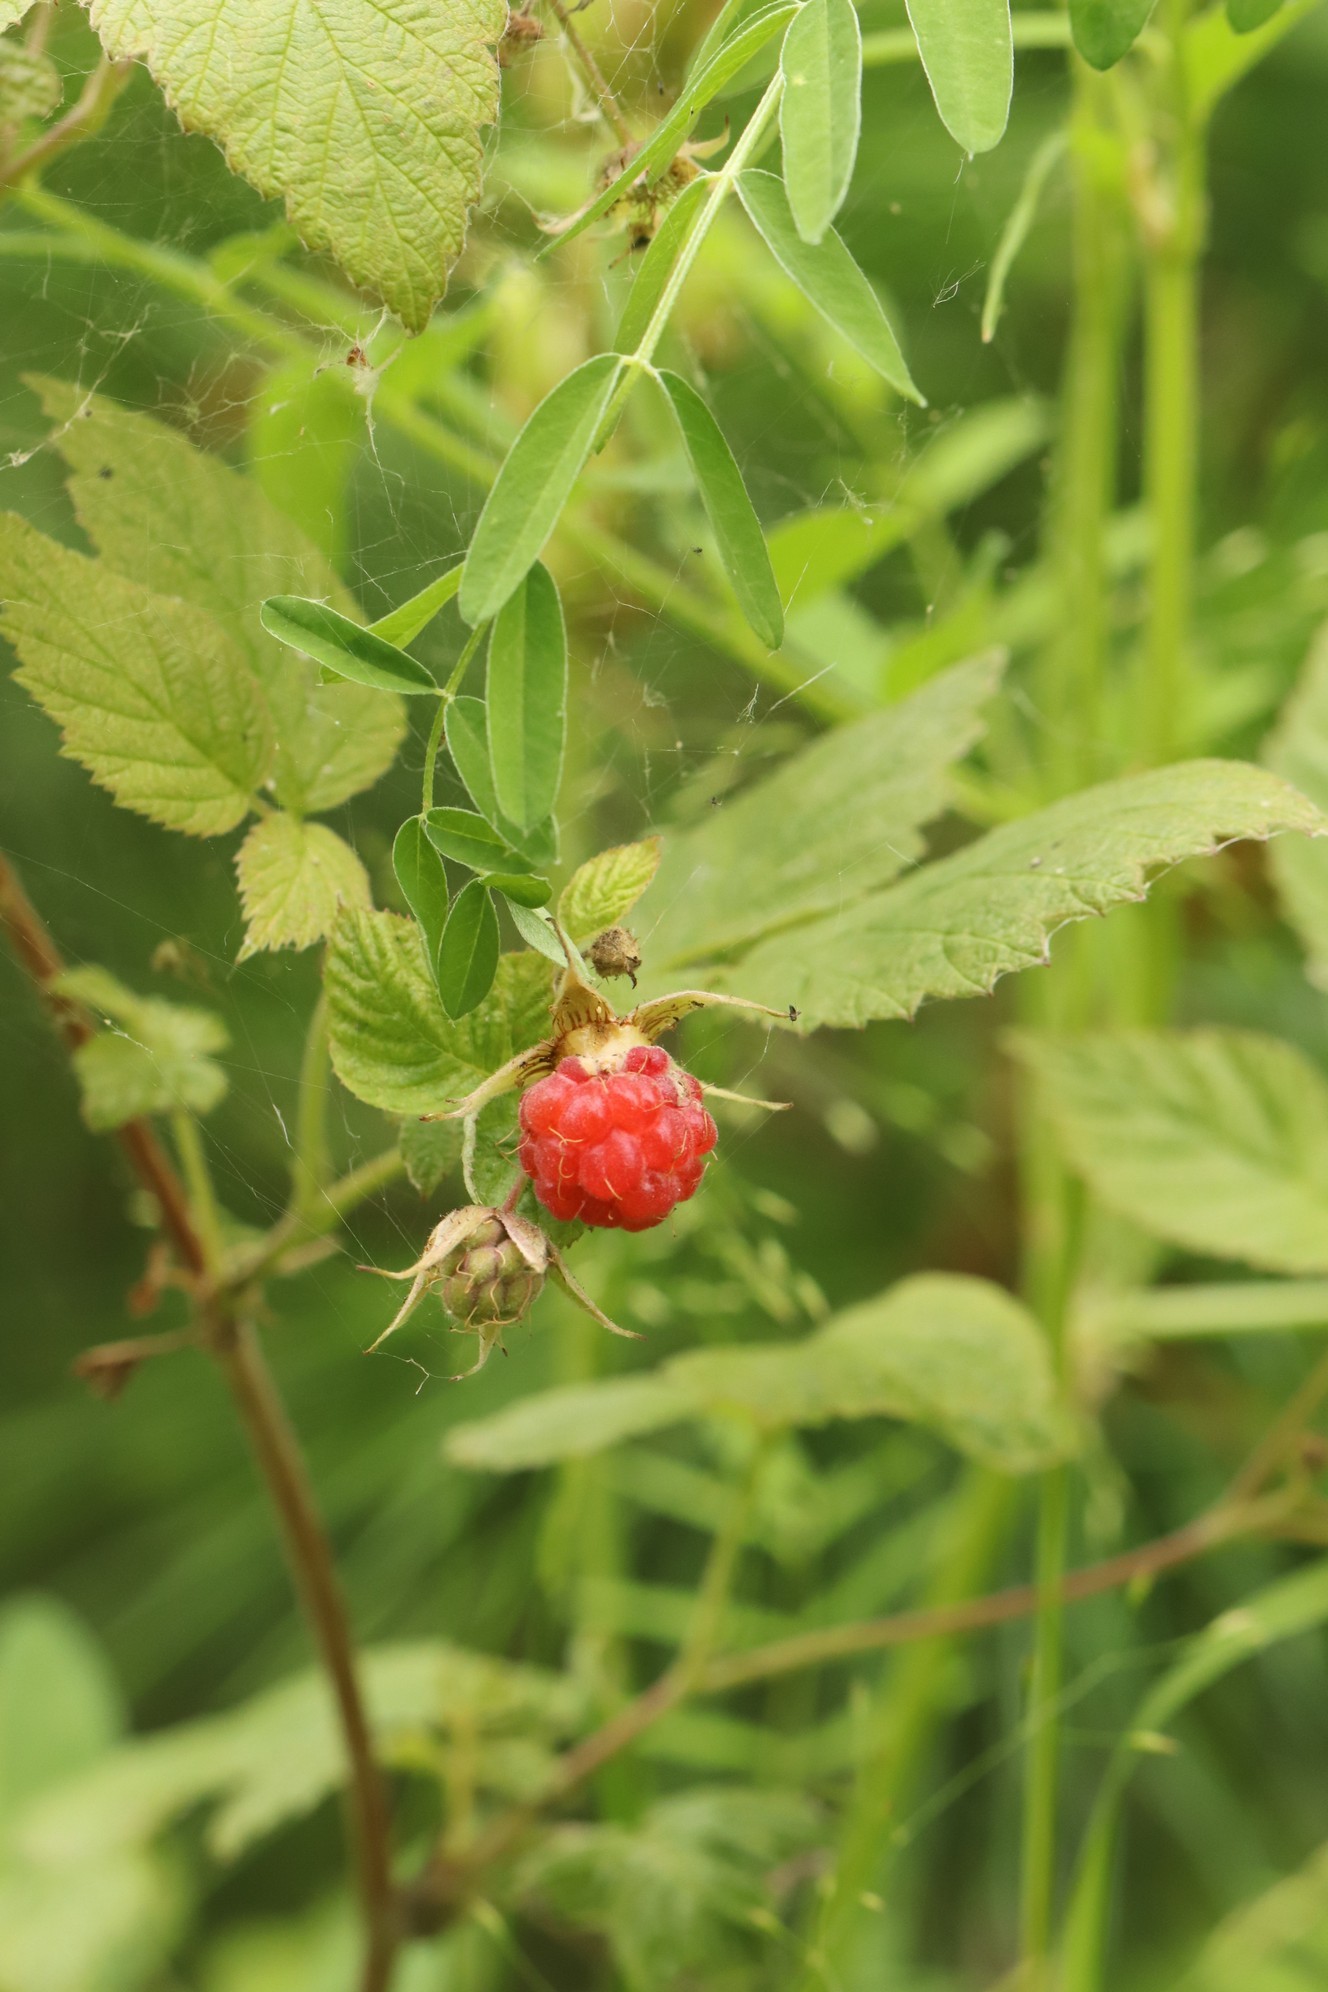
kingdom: Plantae
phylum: Tracheophyta
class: Magnoliopsida
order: Rosales
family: Rosaceae
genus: Rubus
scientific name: Rubus sachalinensis
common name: Red raspberry
